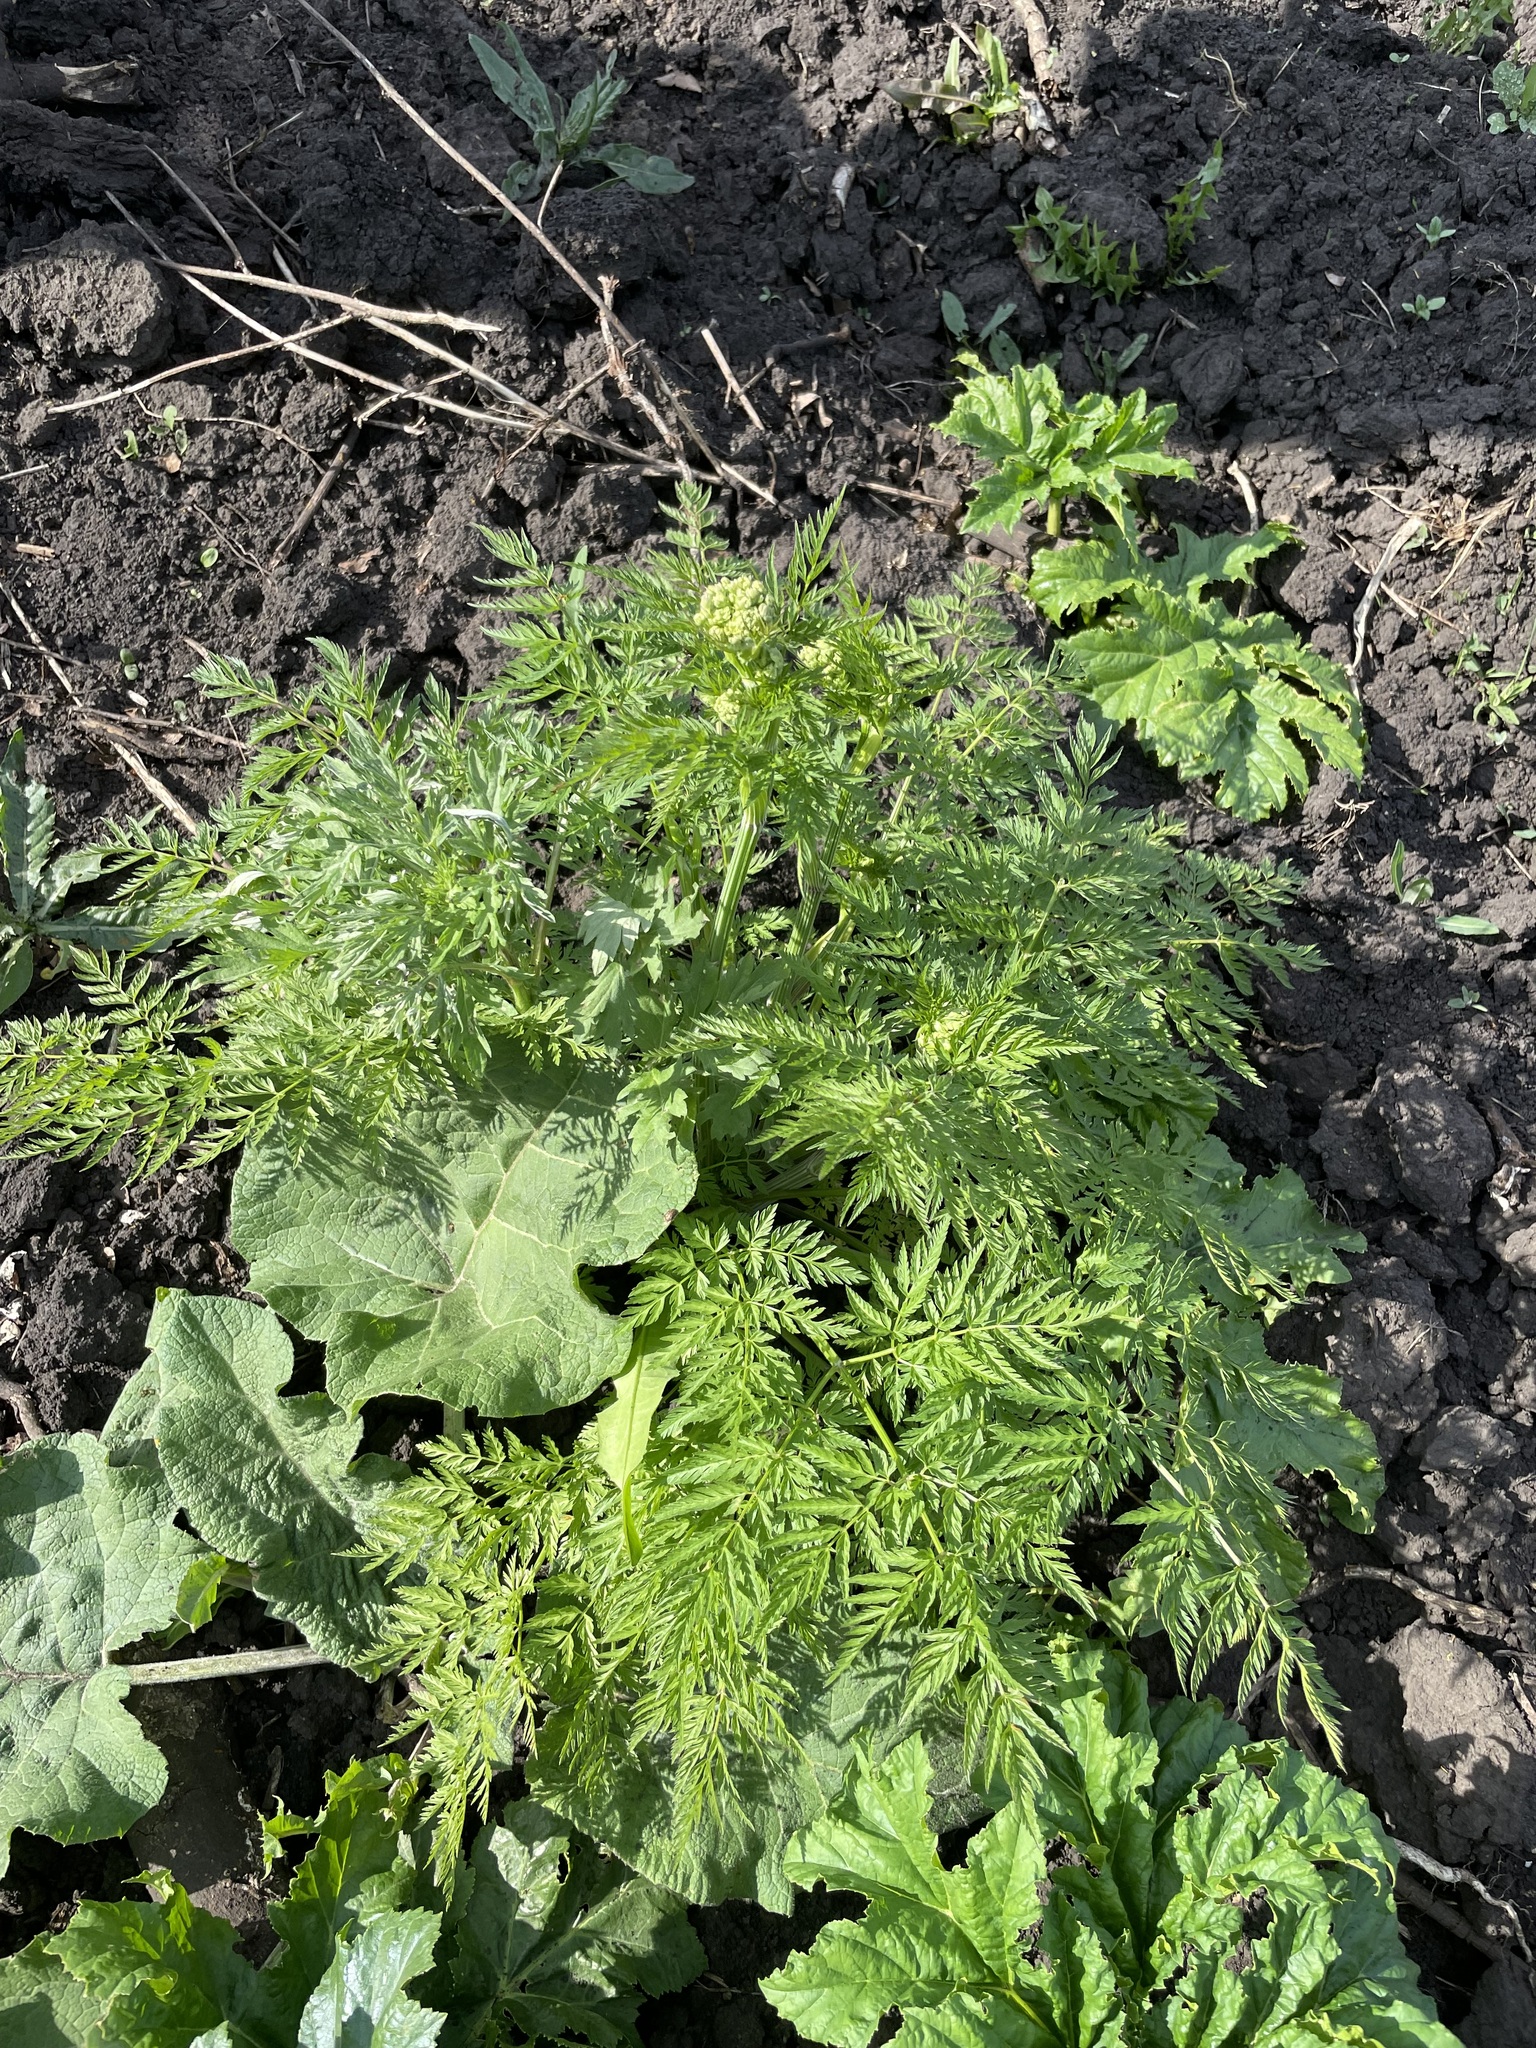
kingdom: Plantae
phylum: Tracheophyta
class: Magnoliopsida
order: Apiales
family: Apiaceae
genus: Anthriscus
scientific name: Anthriscus sylvestris
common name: Cow parsley
